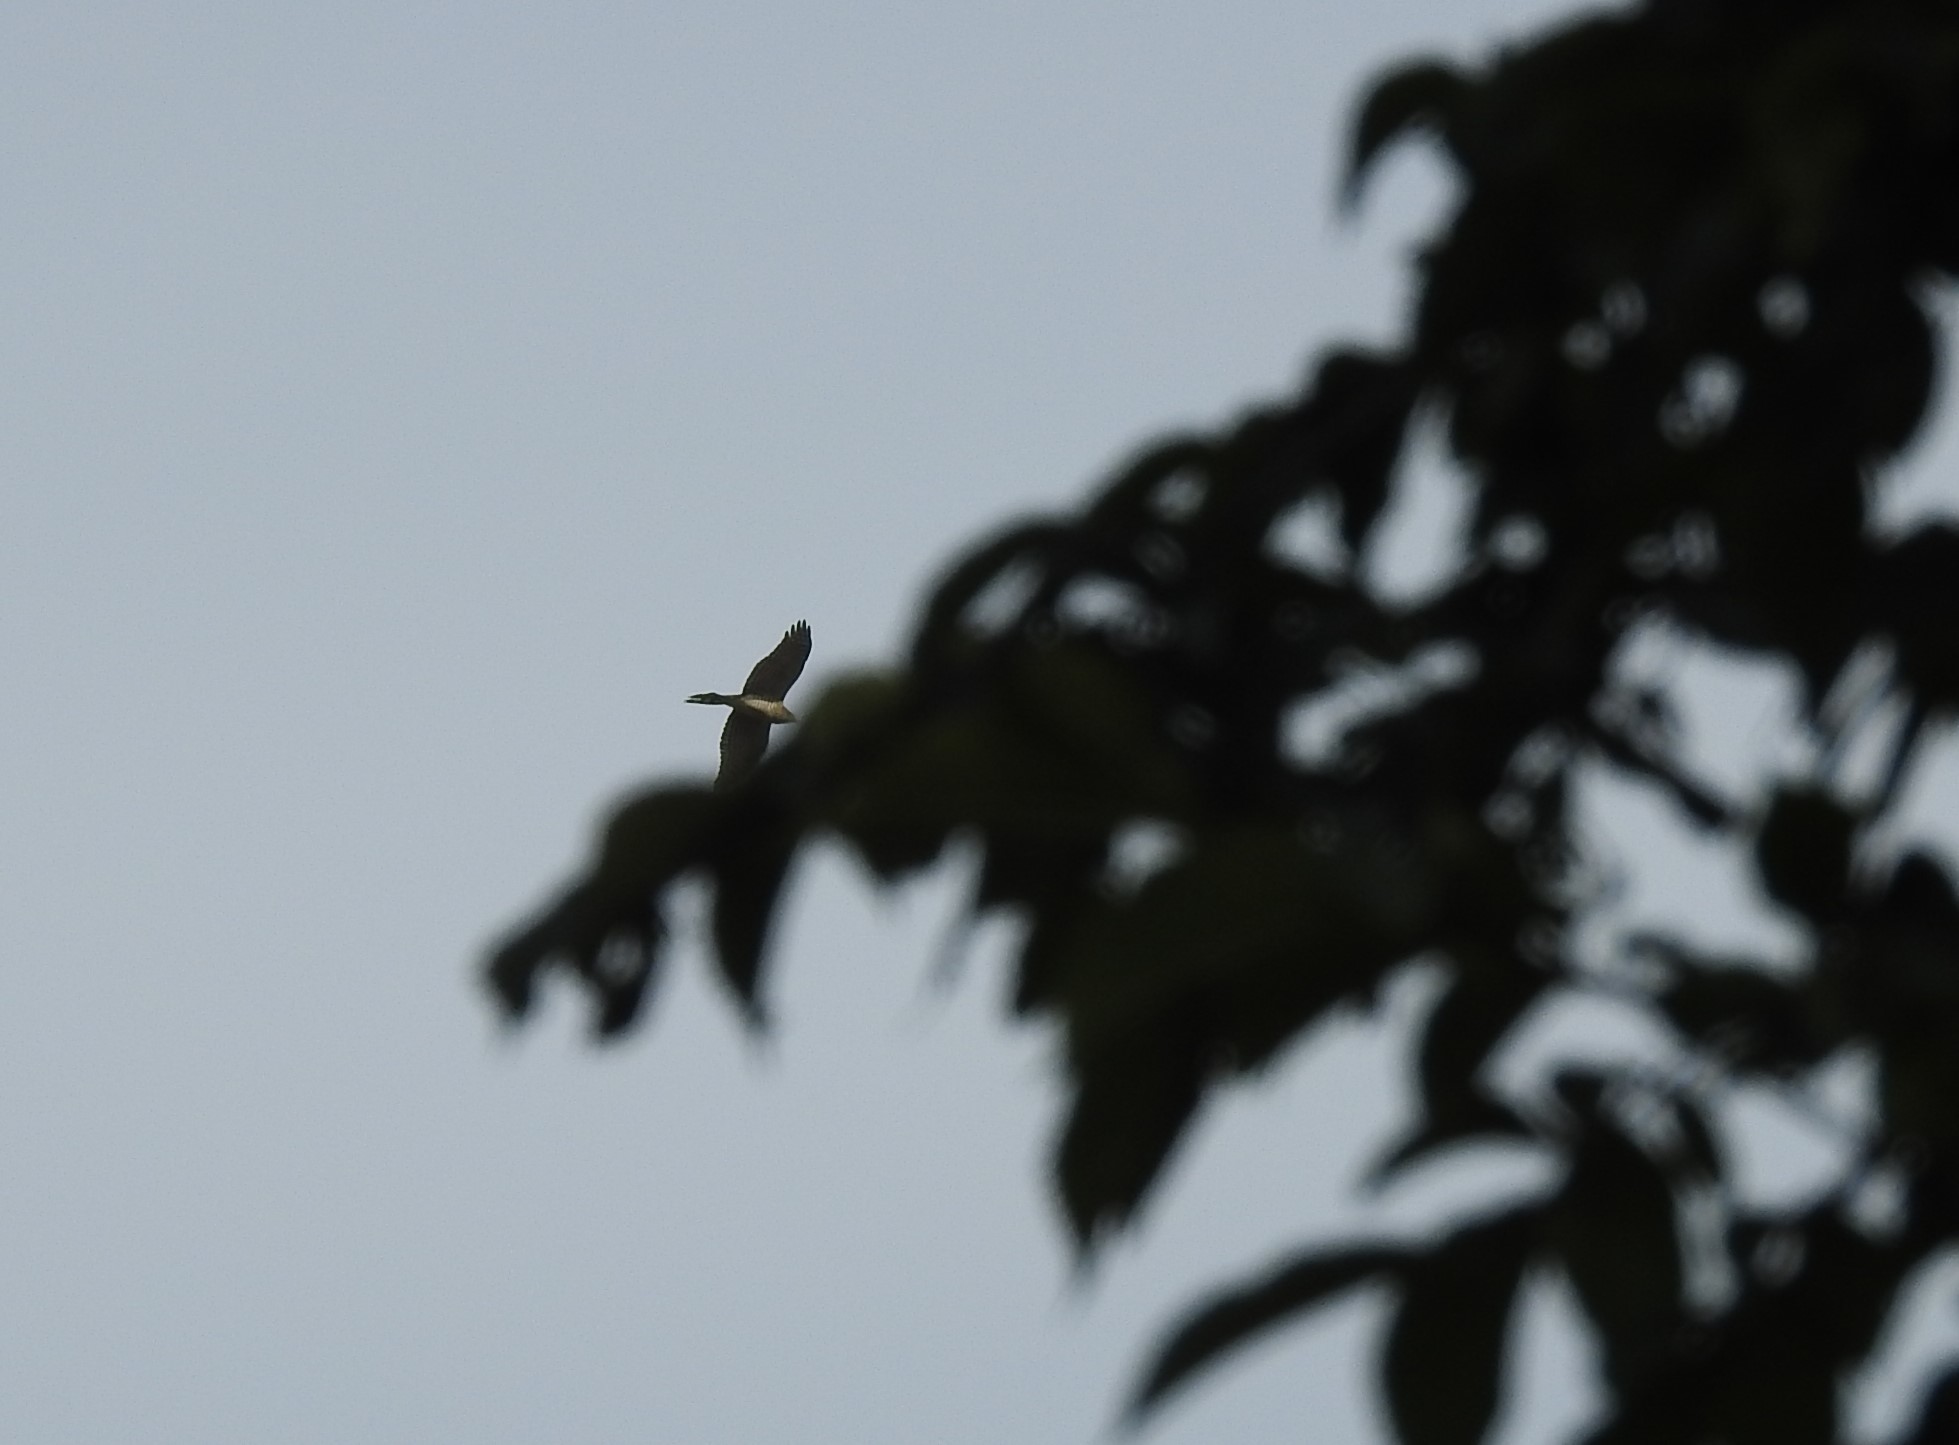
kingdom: Animalia
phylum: Chordata
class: Aves
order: Accipitriformes
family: Accipitridae
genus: Accipiter
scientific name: Accipiter nisus
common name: Eurasian sparrowhawk
